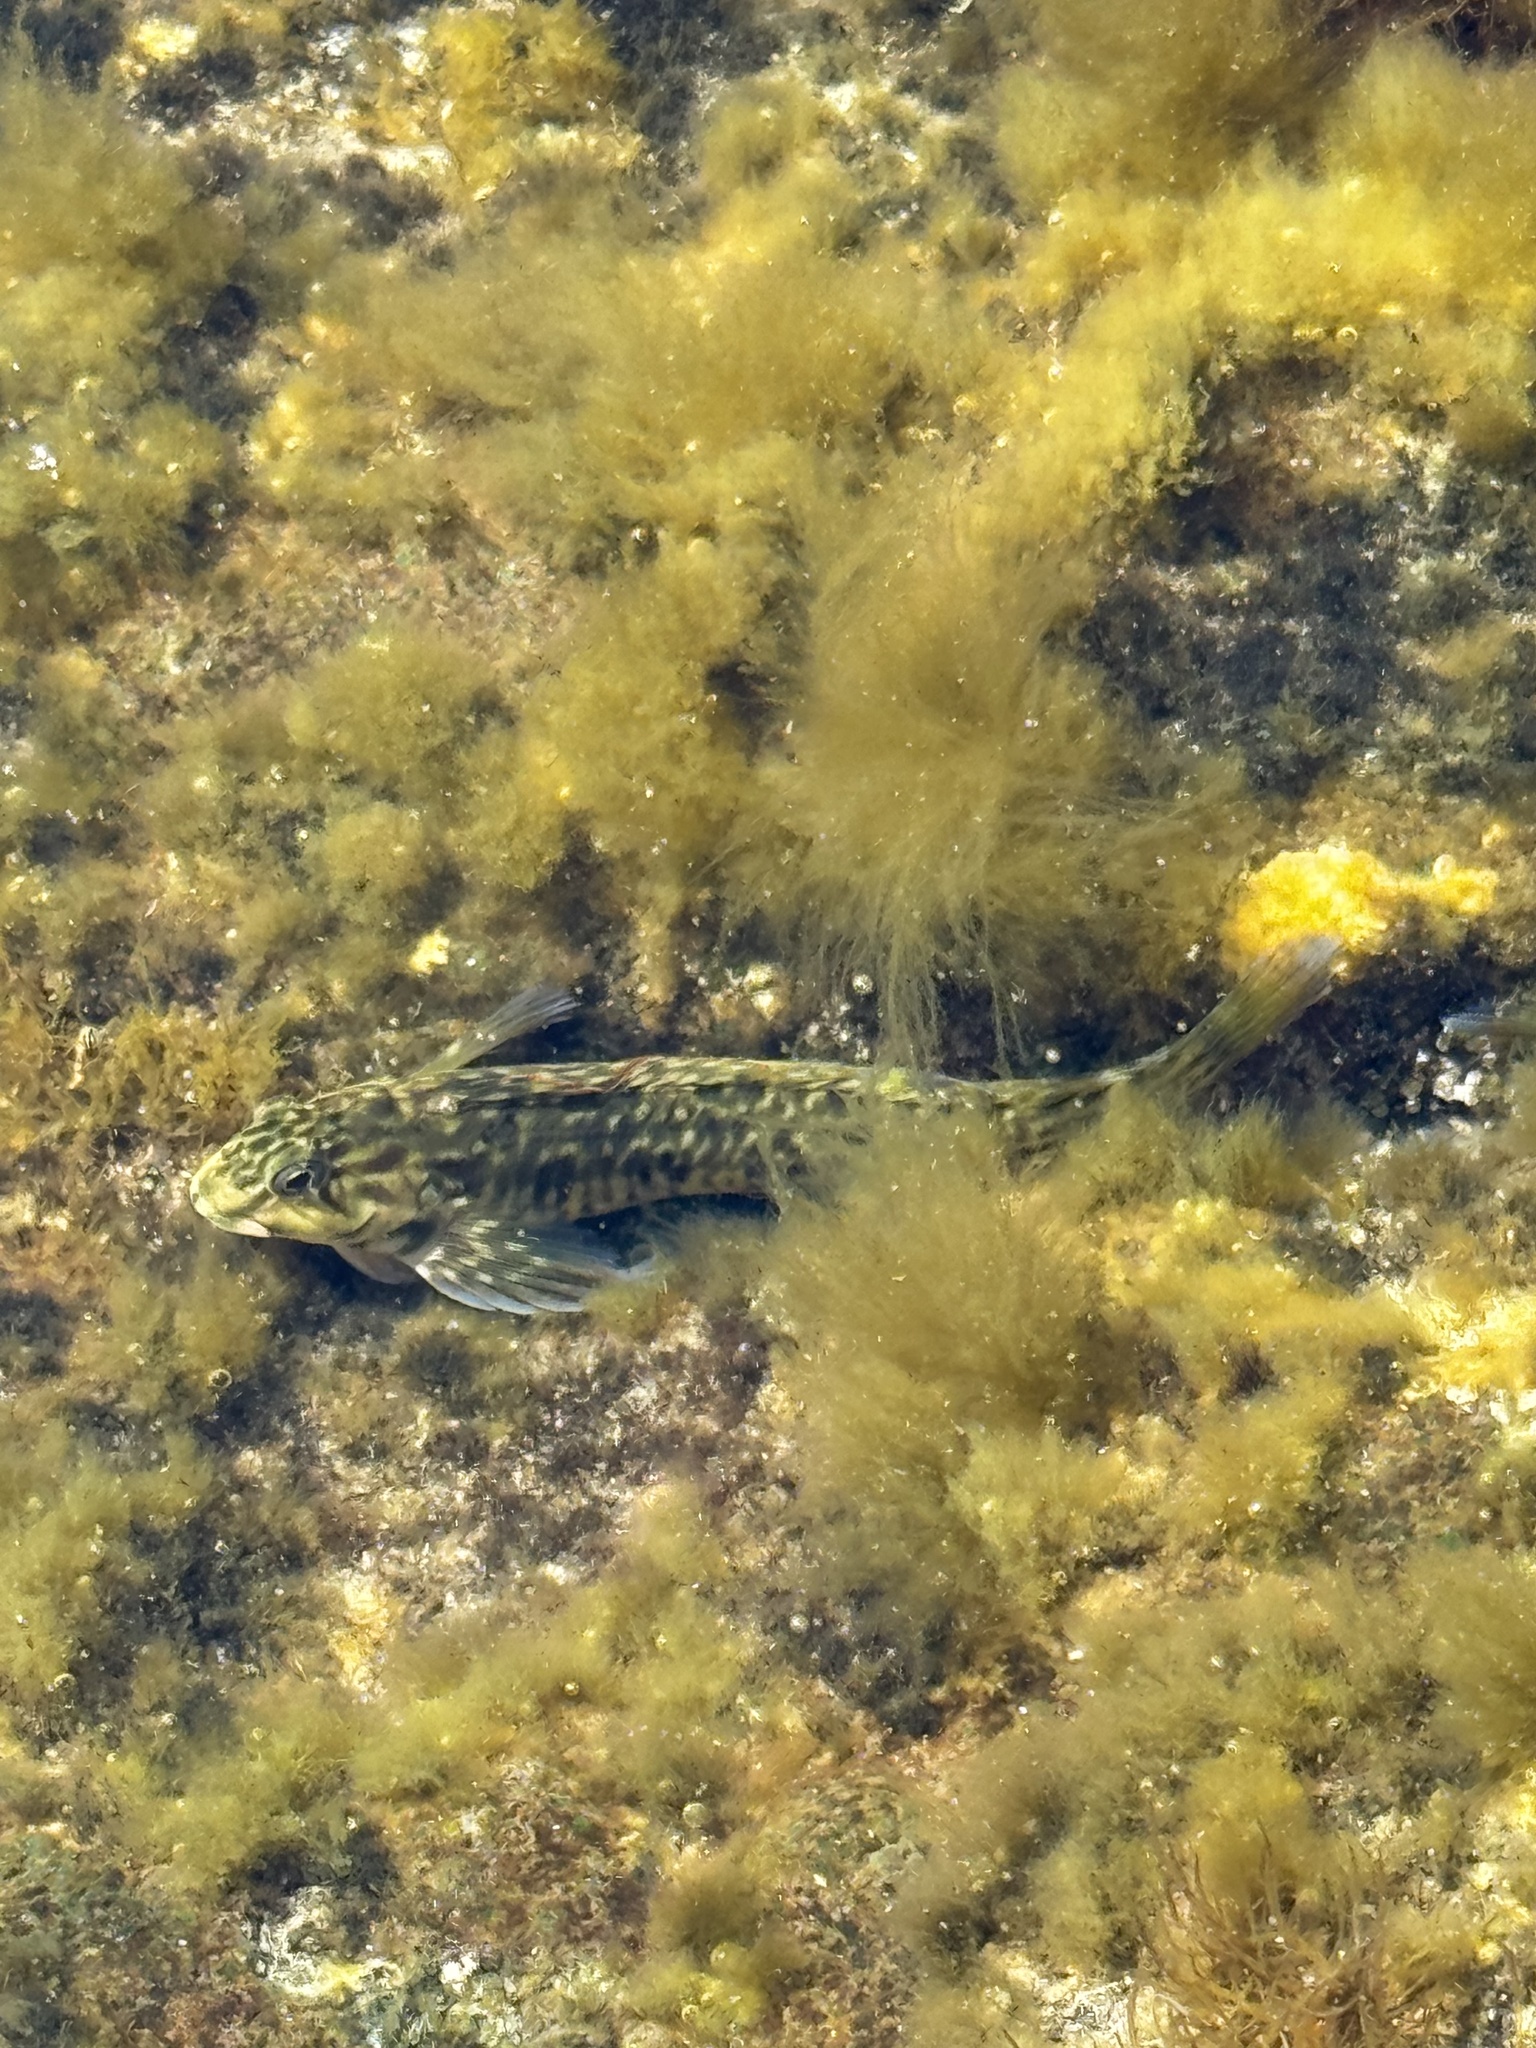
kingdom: Animalia
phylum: Chordata
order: Perciformes
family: Blenniidae
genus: Parablennius
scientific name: Parablennius parvicornis
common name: Rock-pool blenny
